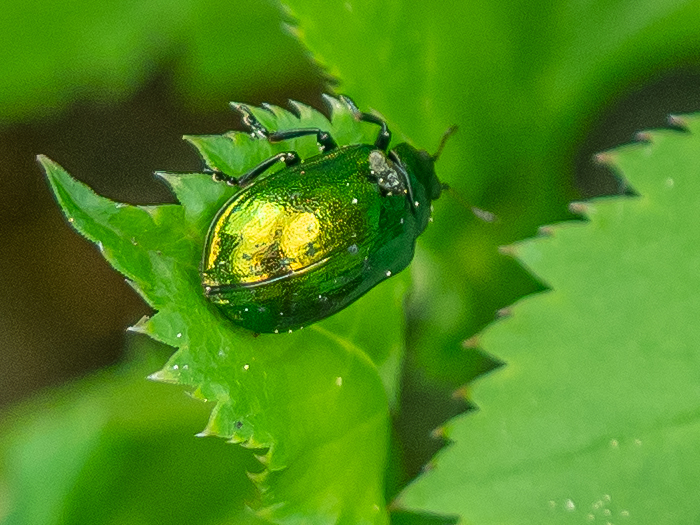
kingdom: Animalia
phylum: Arthropoda
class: Insecta
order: Coleoptera
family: Chrysomelidae
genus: Plagiosterna
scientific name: Plagiosterna aenea
